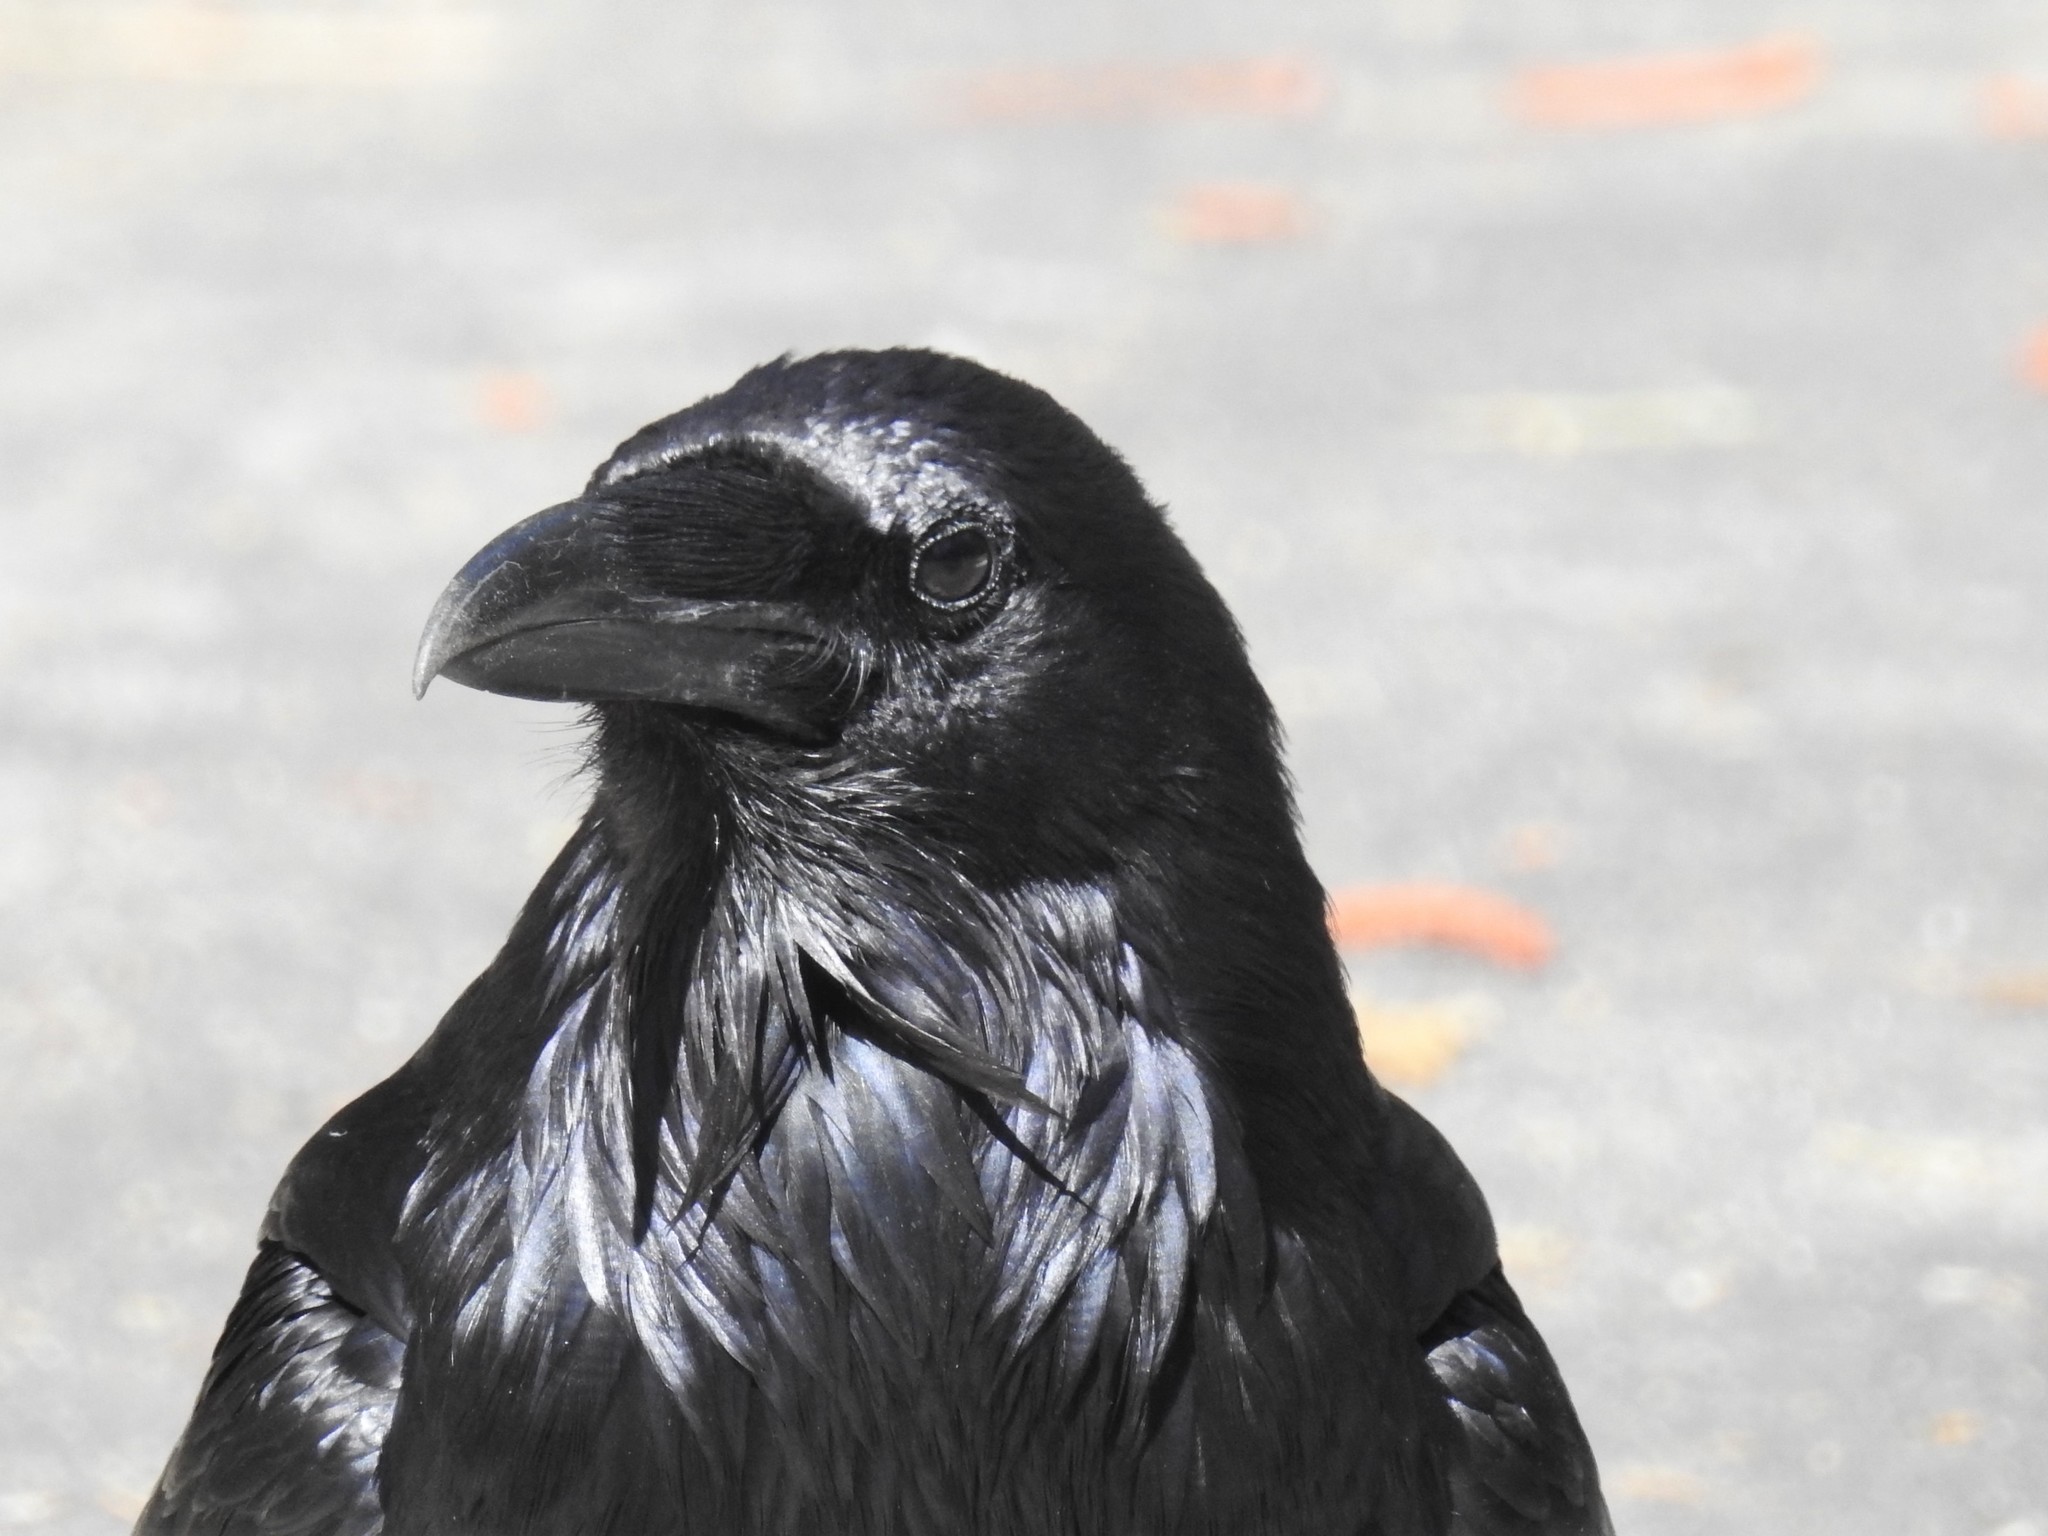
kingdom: Animalia
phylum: Chordata
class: Aves
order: Passeriformes
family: Corvidae
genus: Corvus
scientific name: Corvus corax
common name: Common raven
